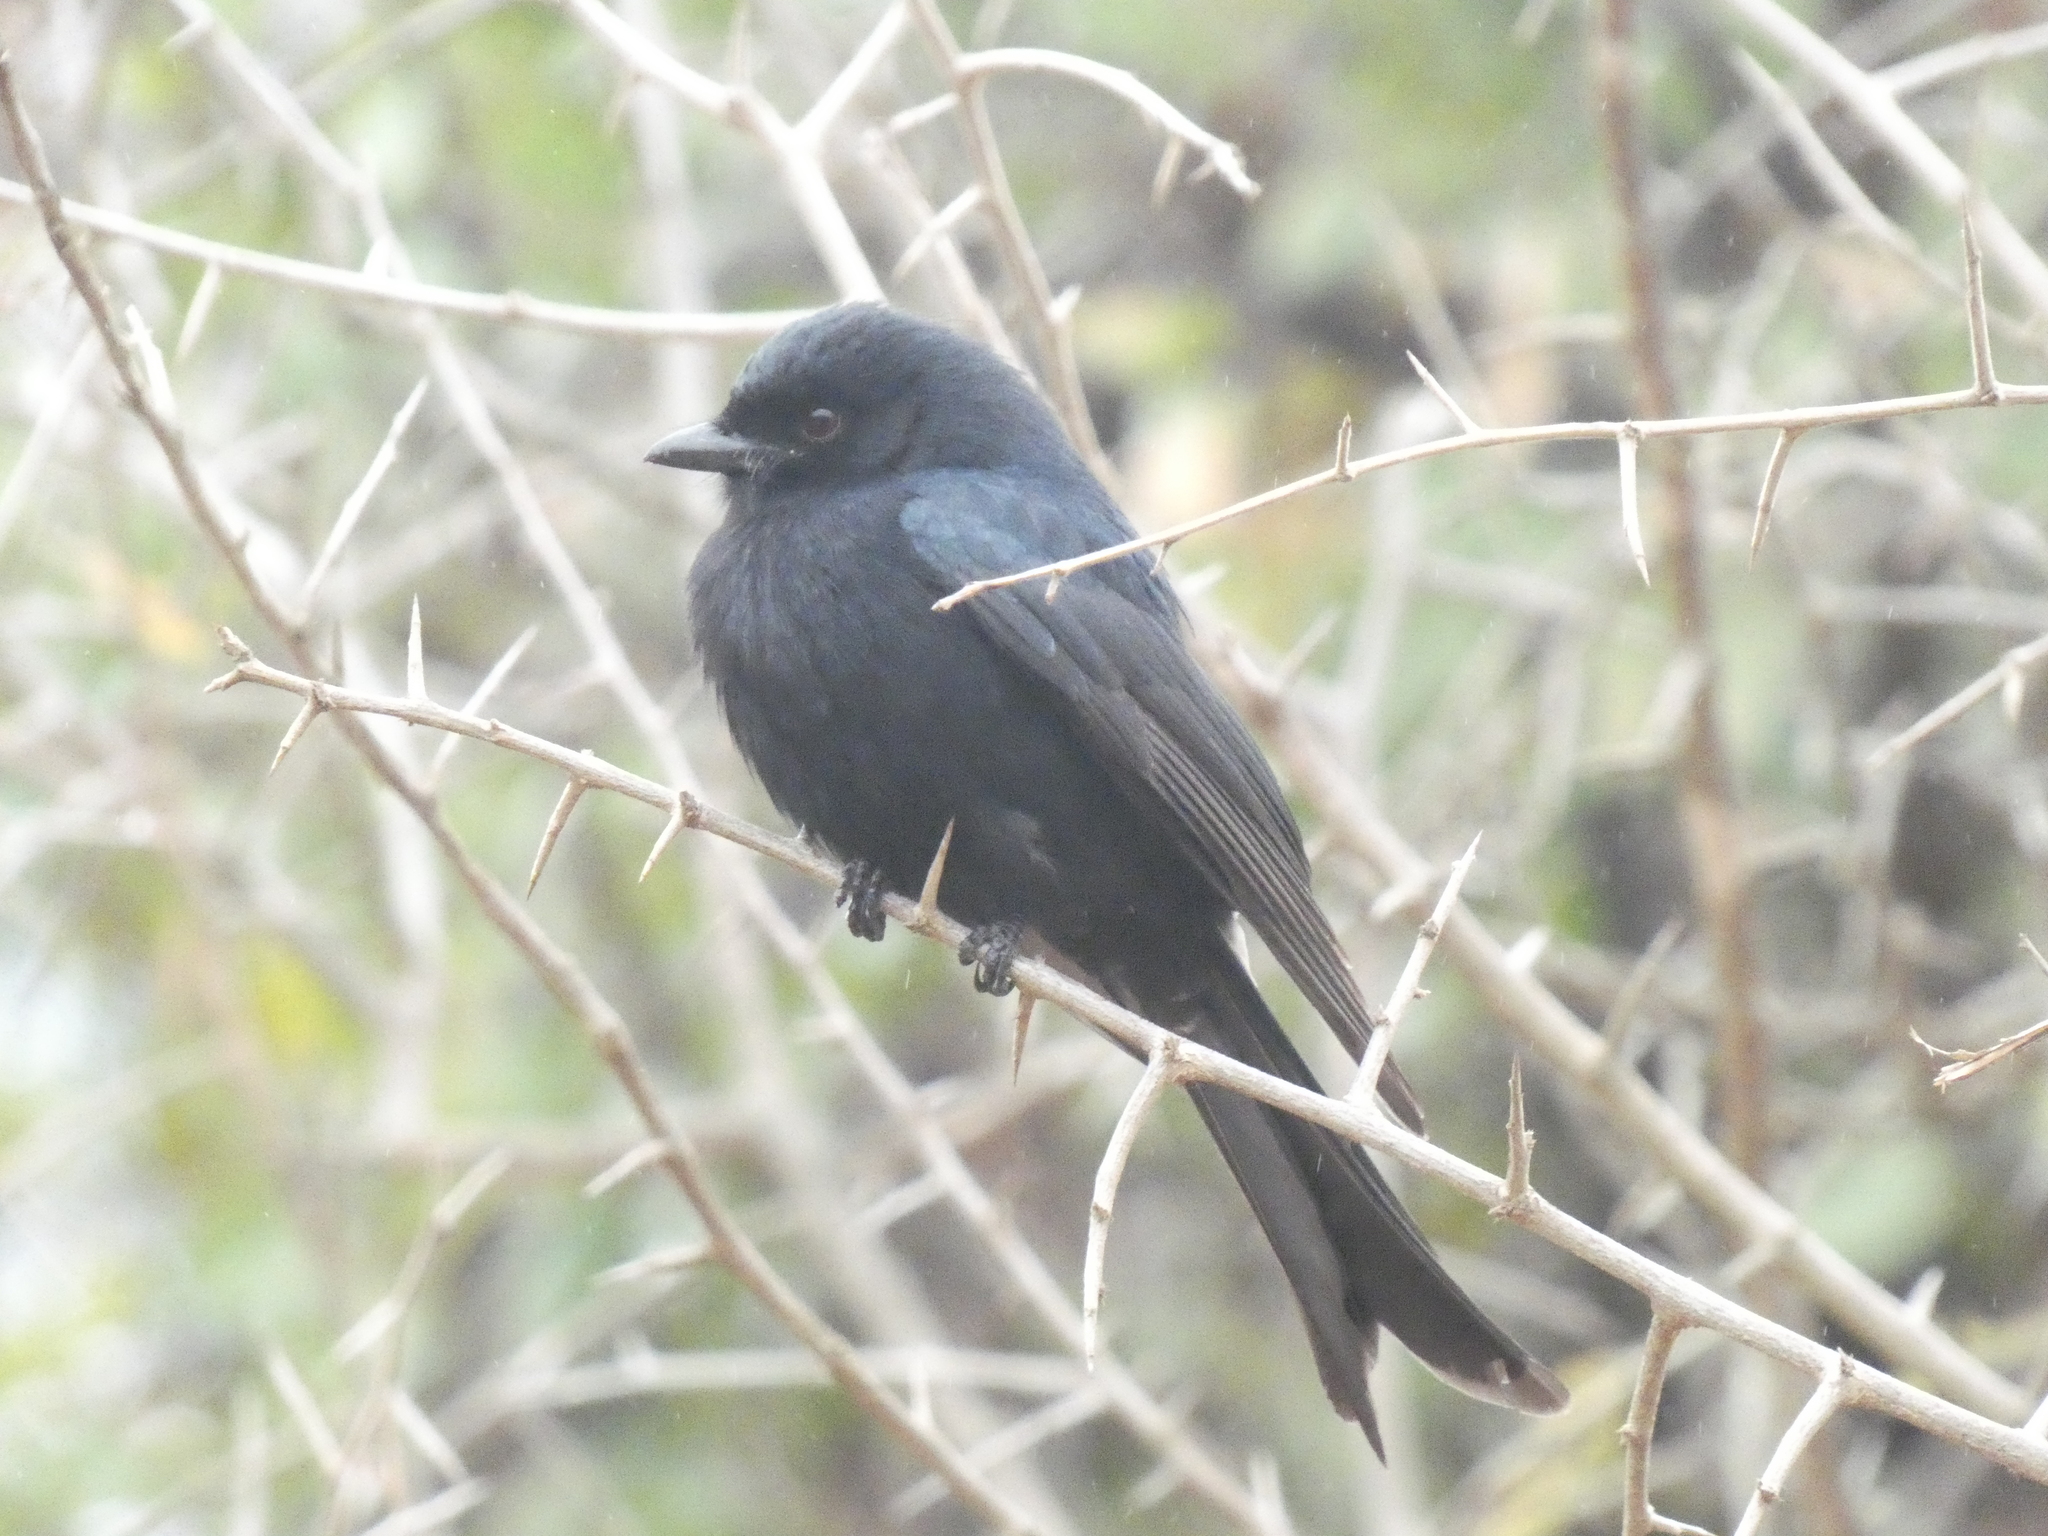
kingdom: Animalia
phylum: Chordata
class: Aves
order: Passeriformes
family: Dicruridae
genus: Dicrurus
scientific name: Dicrurus adsimilis
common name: Fork-tailed drongo
